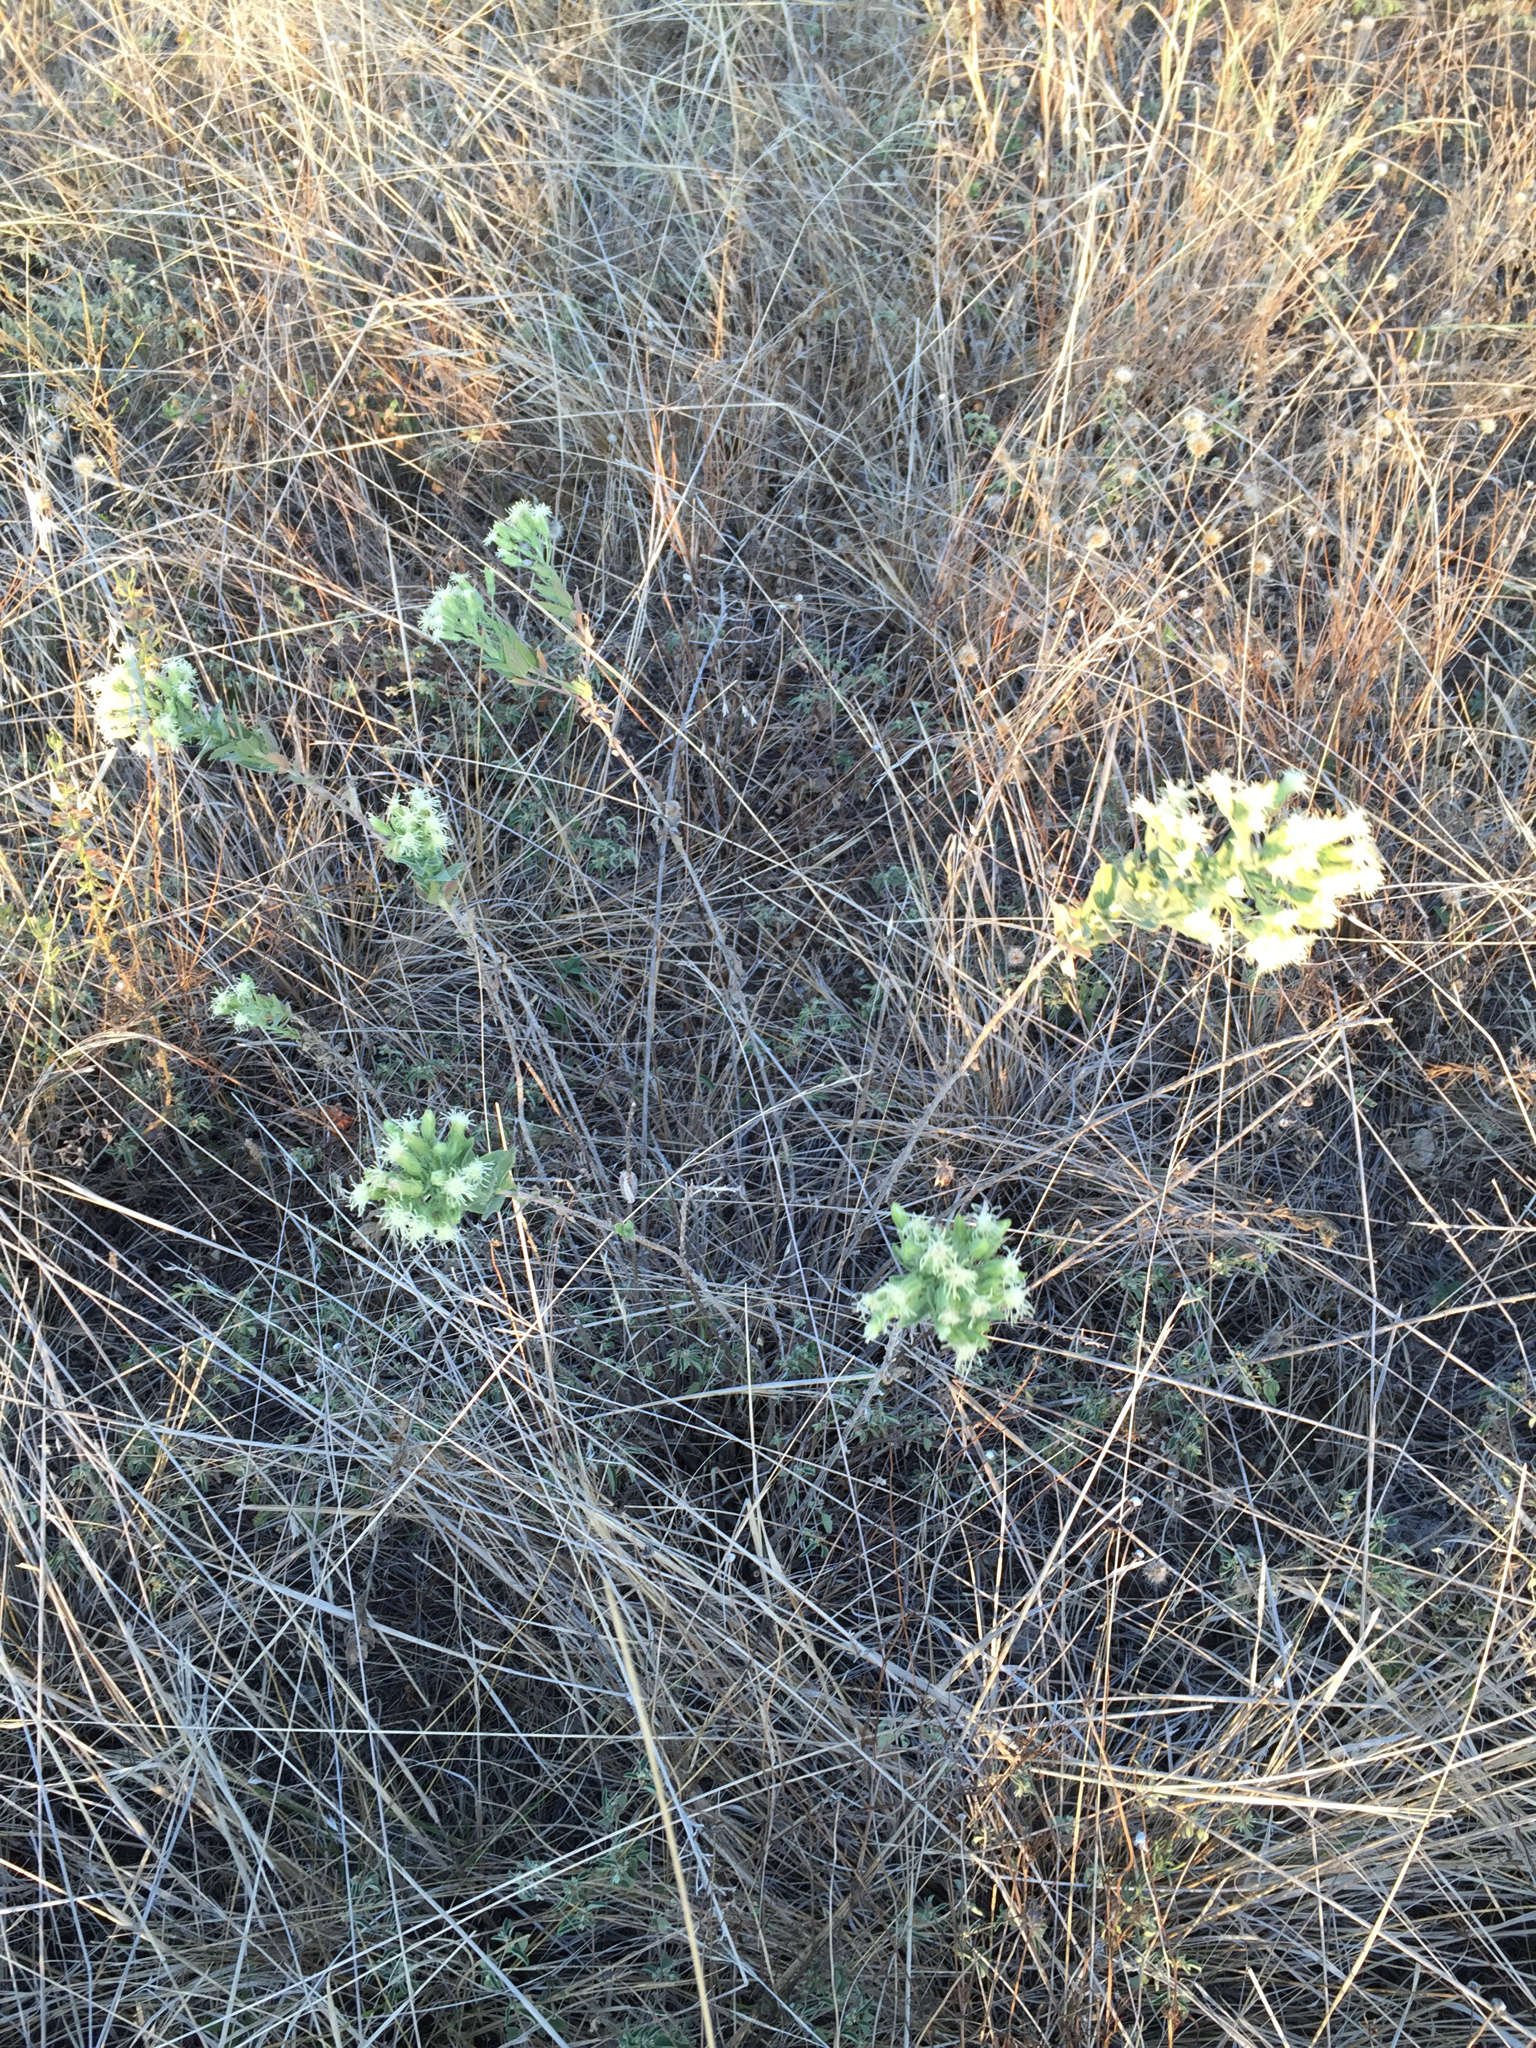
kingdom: Plantae
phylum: Tracheophyta
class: Magnoliopsida
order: Asterales
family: Asteraceae
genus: Brickellia
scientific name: Brickellia eupatorioides
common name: False boneset
